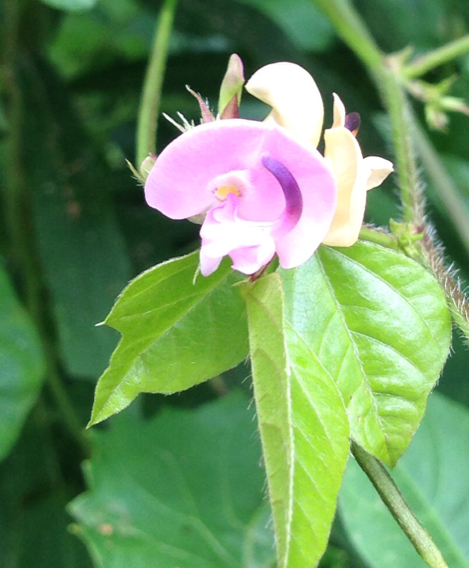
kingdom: Plantae
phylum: Tracheophyta
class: Magnoliopsida
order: Fabales
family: Fabaceae
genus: Strophostyles
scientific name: Strophostyles helvola
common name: Trailing wild bean
